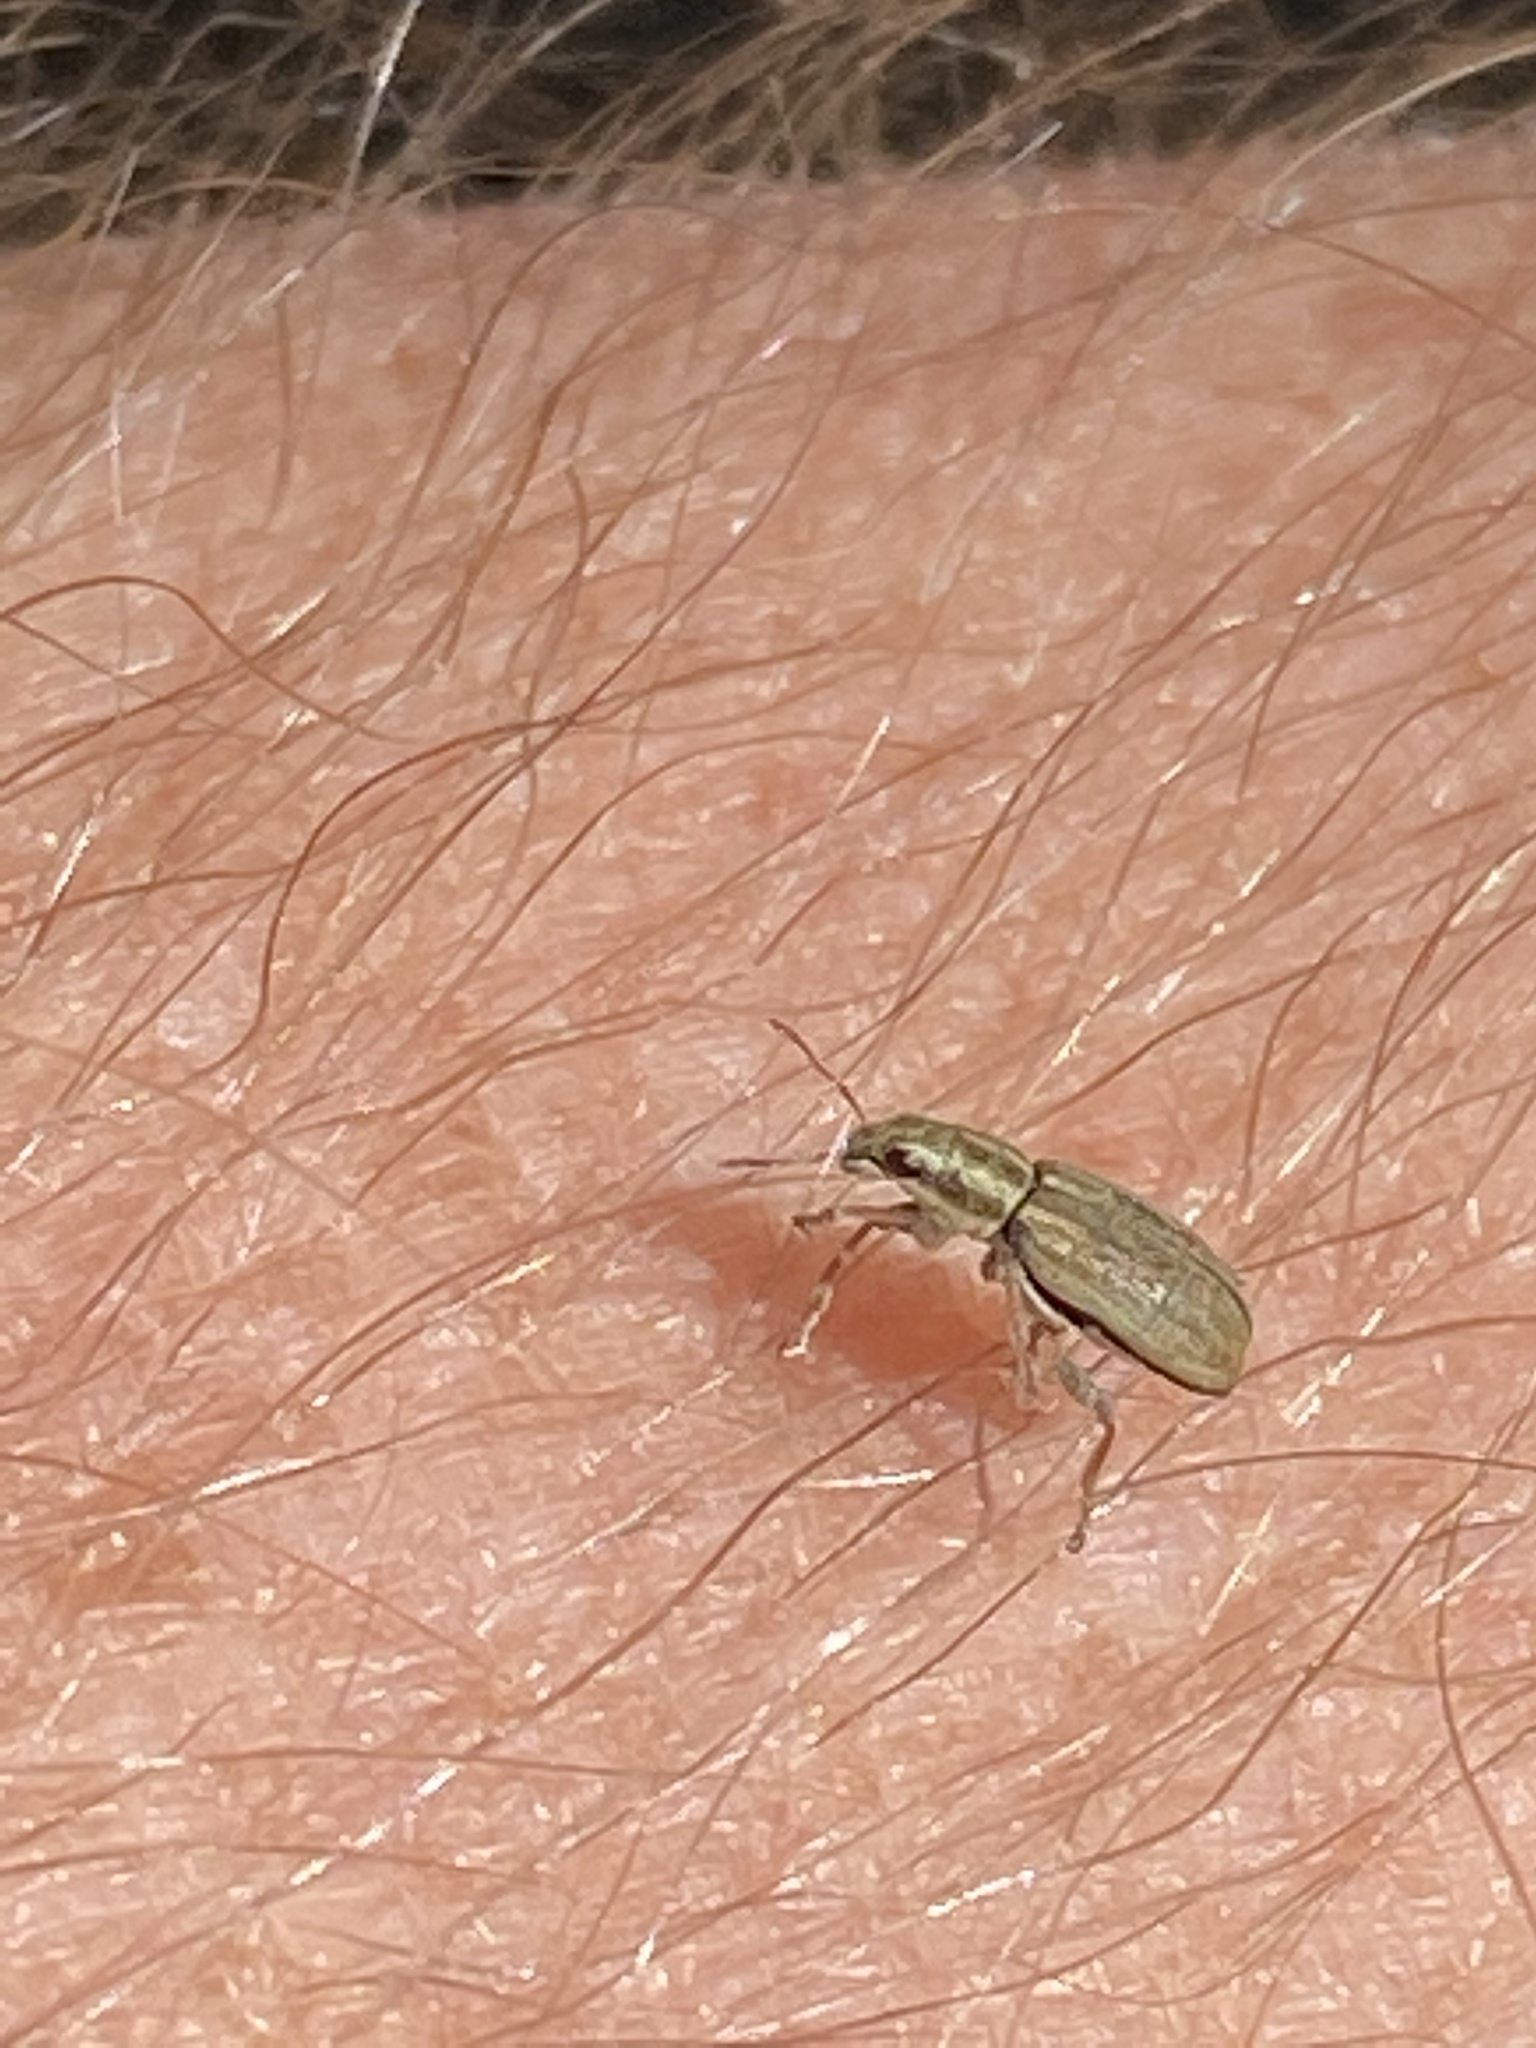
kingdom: Animalia
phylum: Arthropoda
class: Insecta
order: Coleoptera
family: Curculionidae
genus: Sitona
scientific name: Sitona lineatus
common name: Weevil
